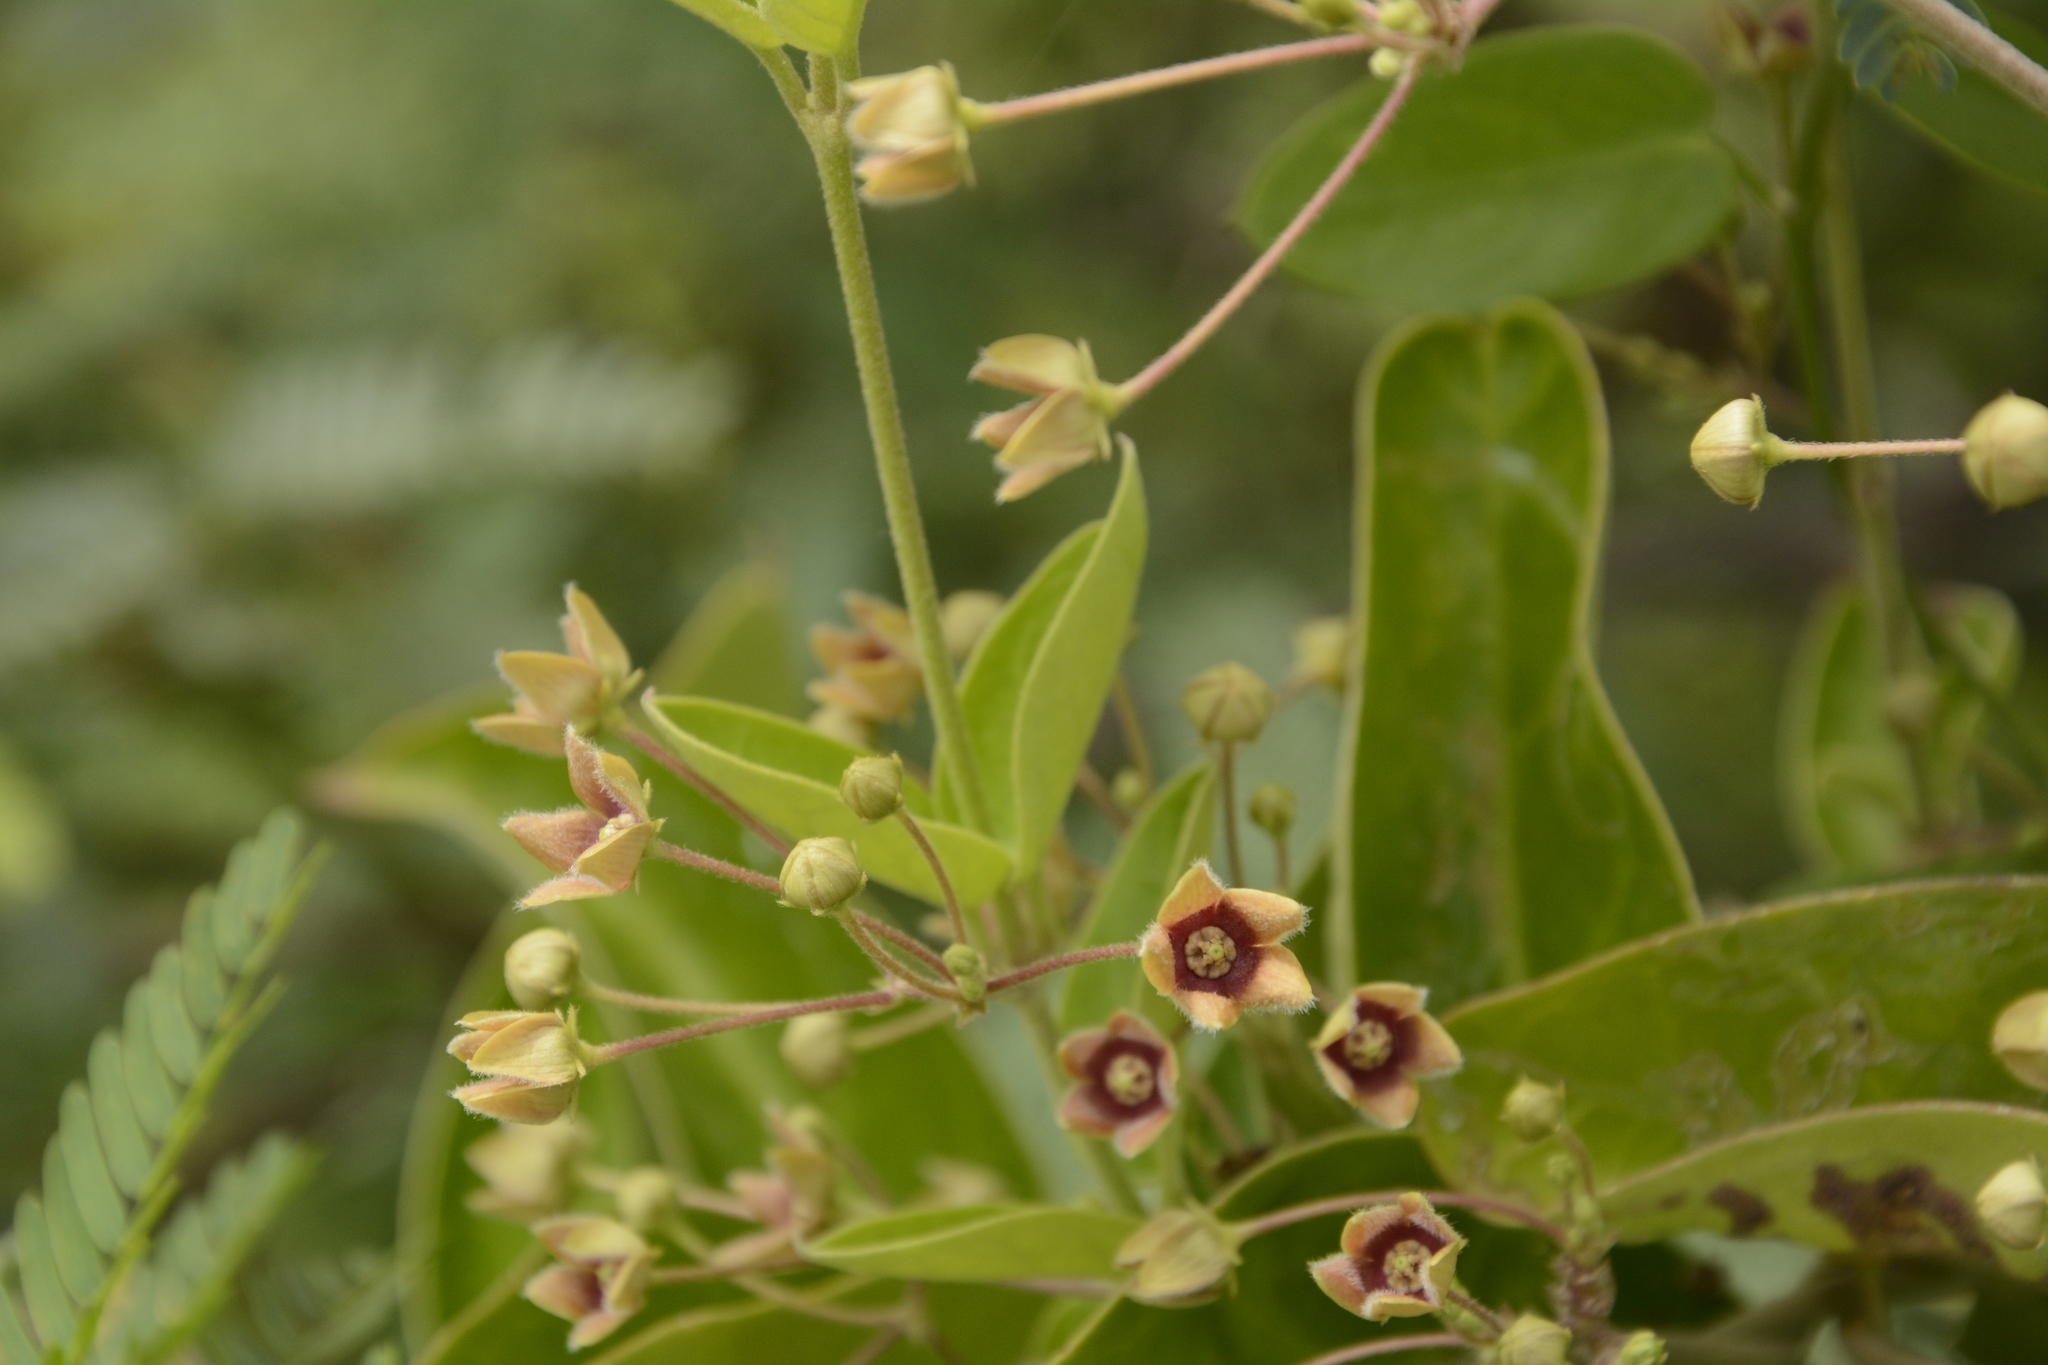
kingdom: Plantae
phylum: Tracheophyta
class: Magnoliopsida
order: Gentianales
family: Apocynaceae
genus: Vincetoxicum
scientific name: Vincetoxicum indicum
